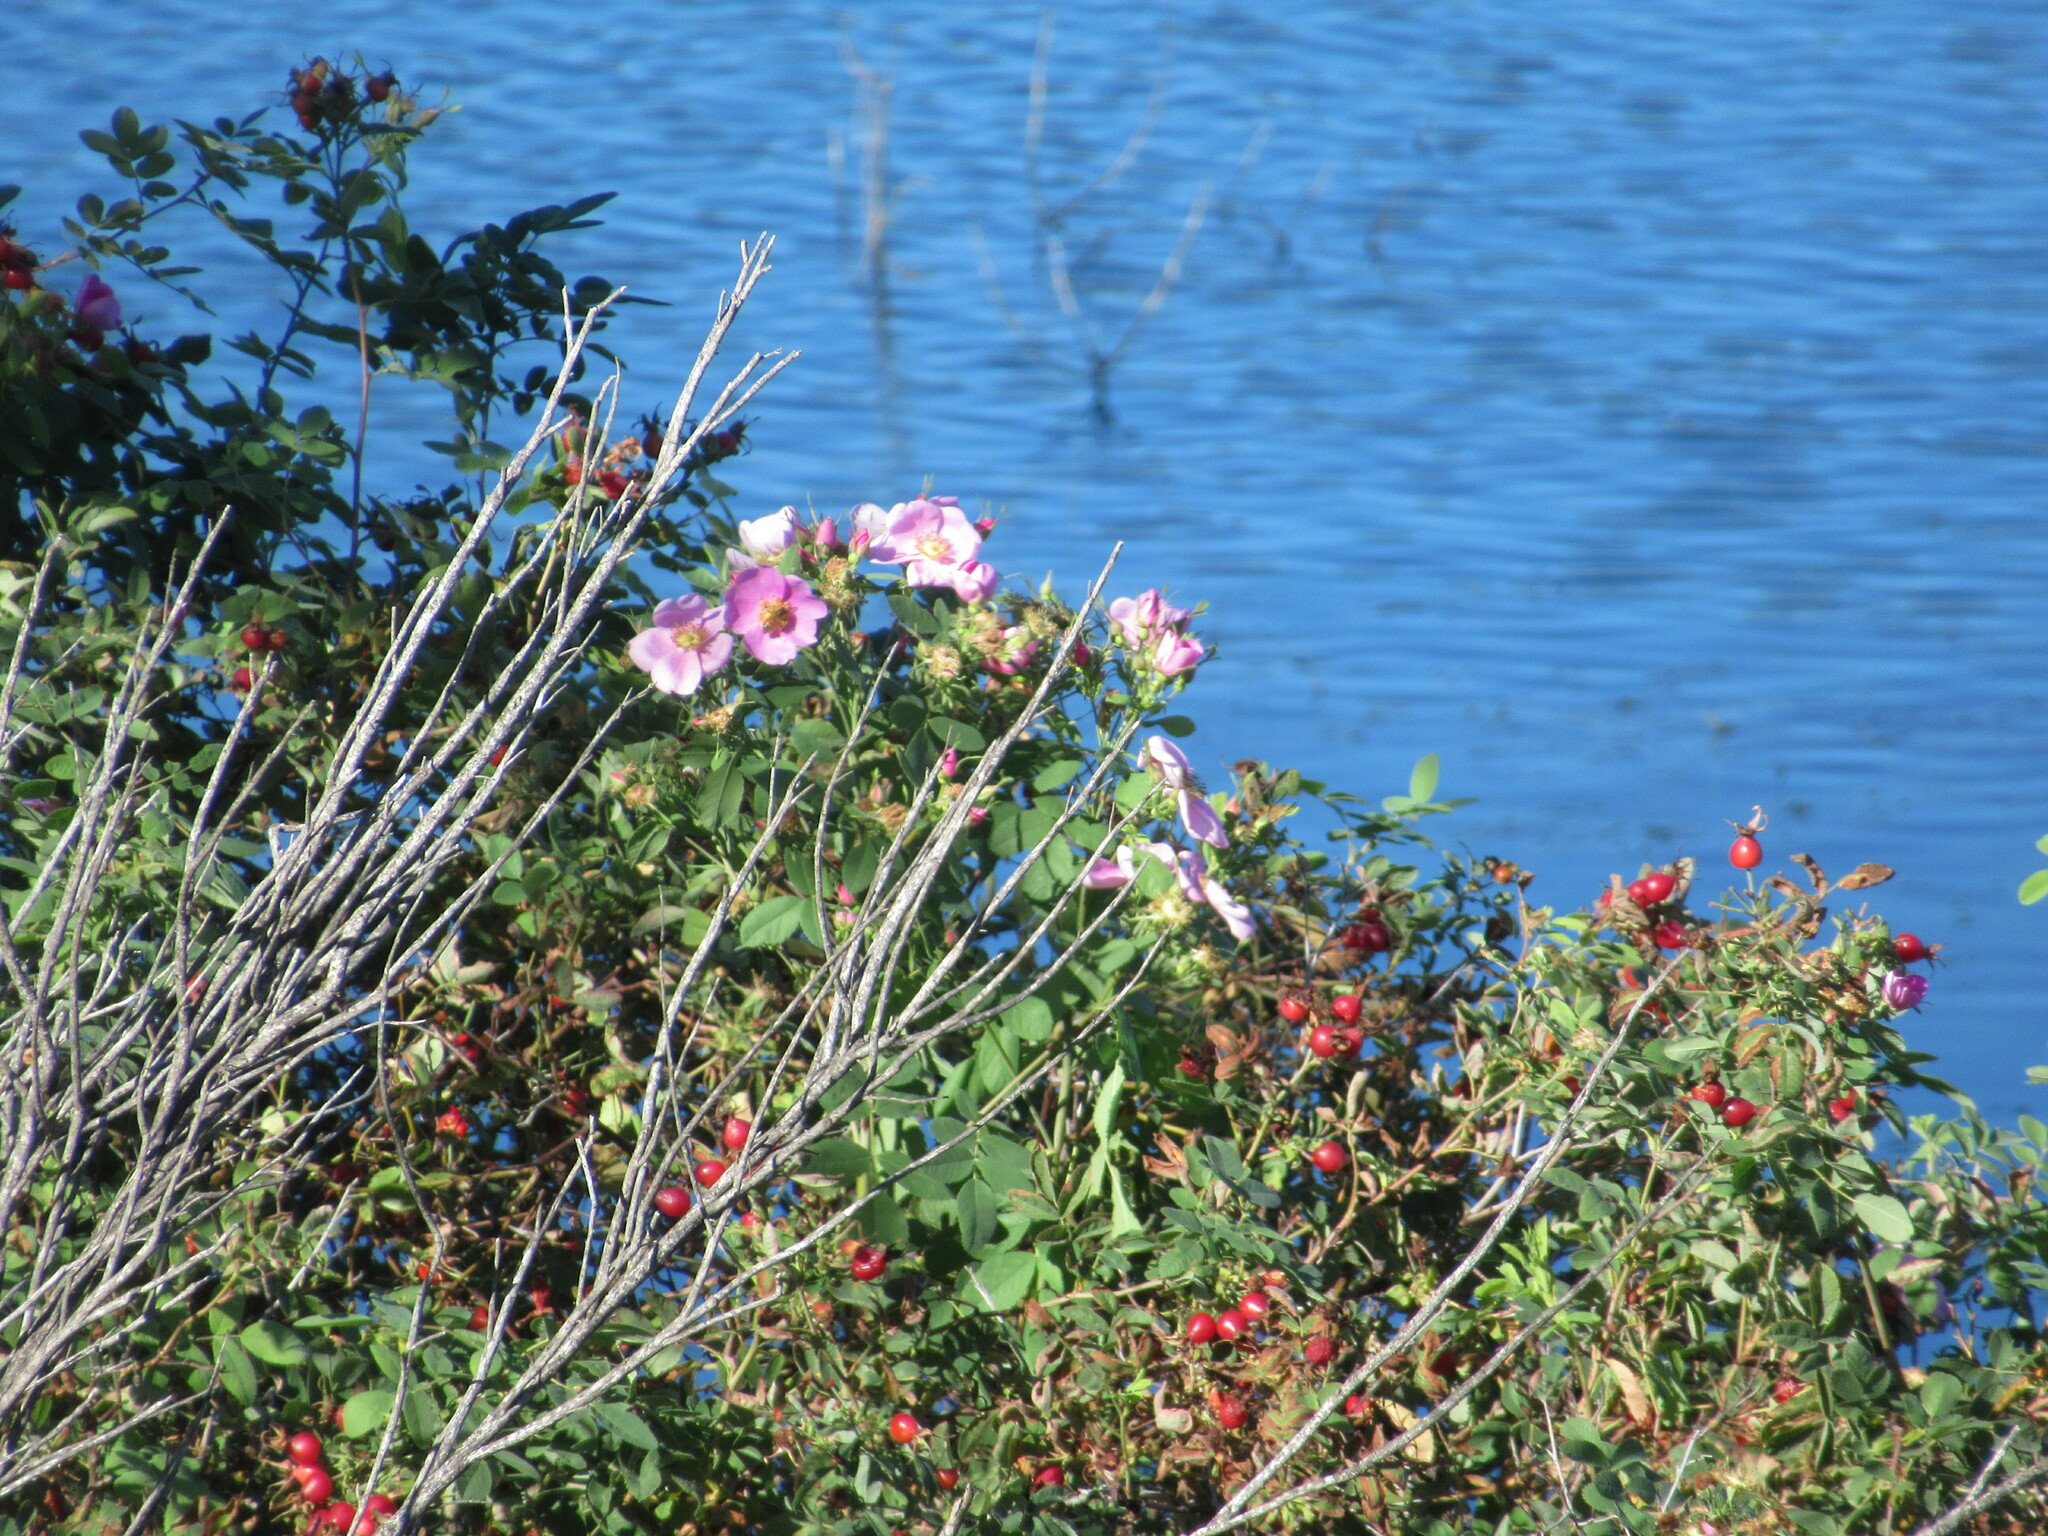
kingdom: Plantae
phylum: Tracheophyta
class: Magnoliopsida
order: Rosales
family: Rosaceae
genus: Rosa
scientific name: Rosa californica
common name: California rose
